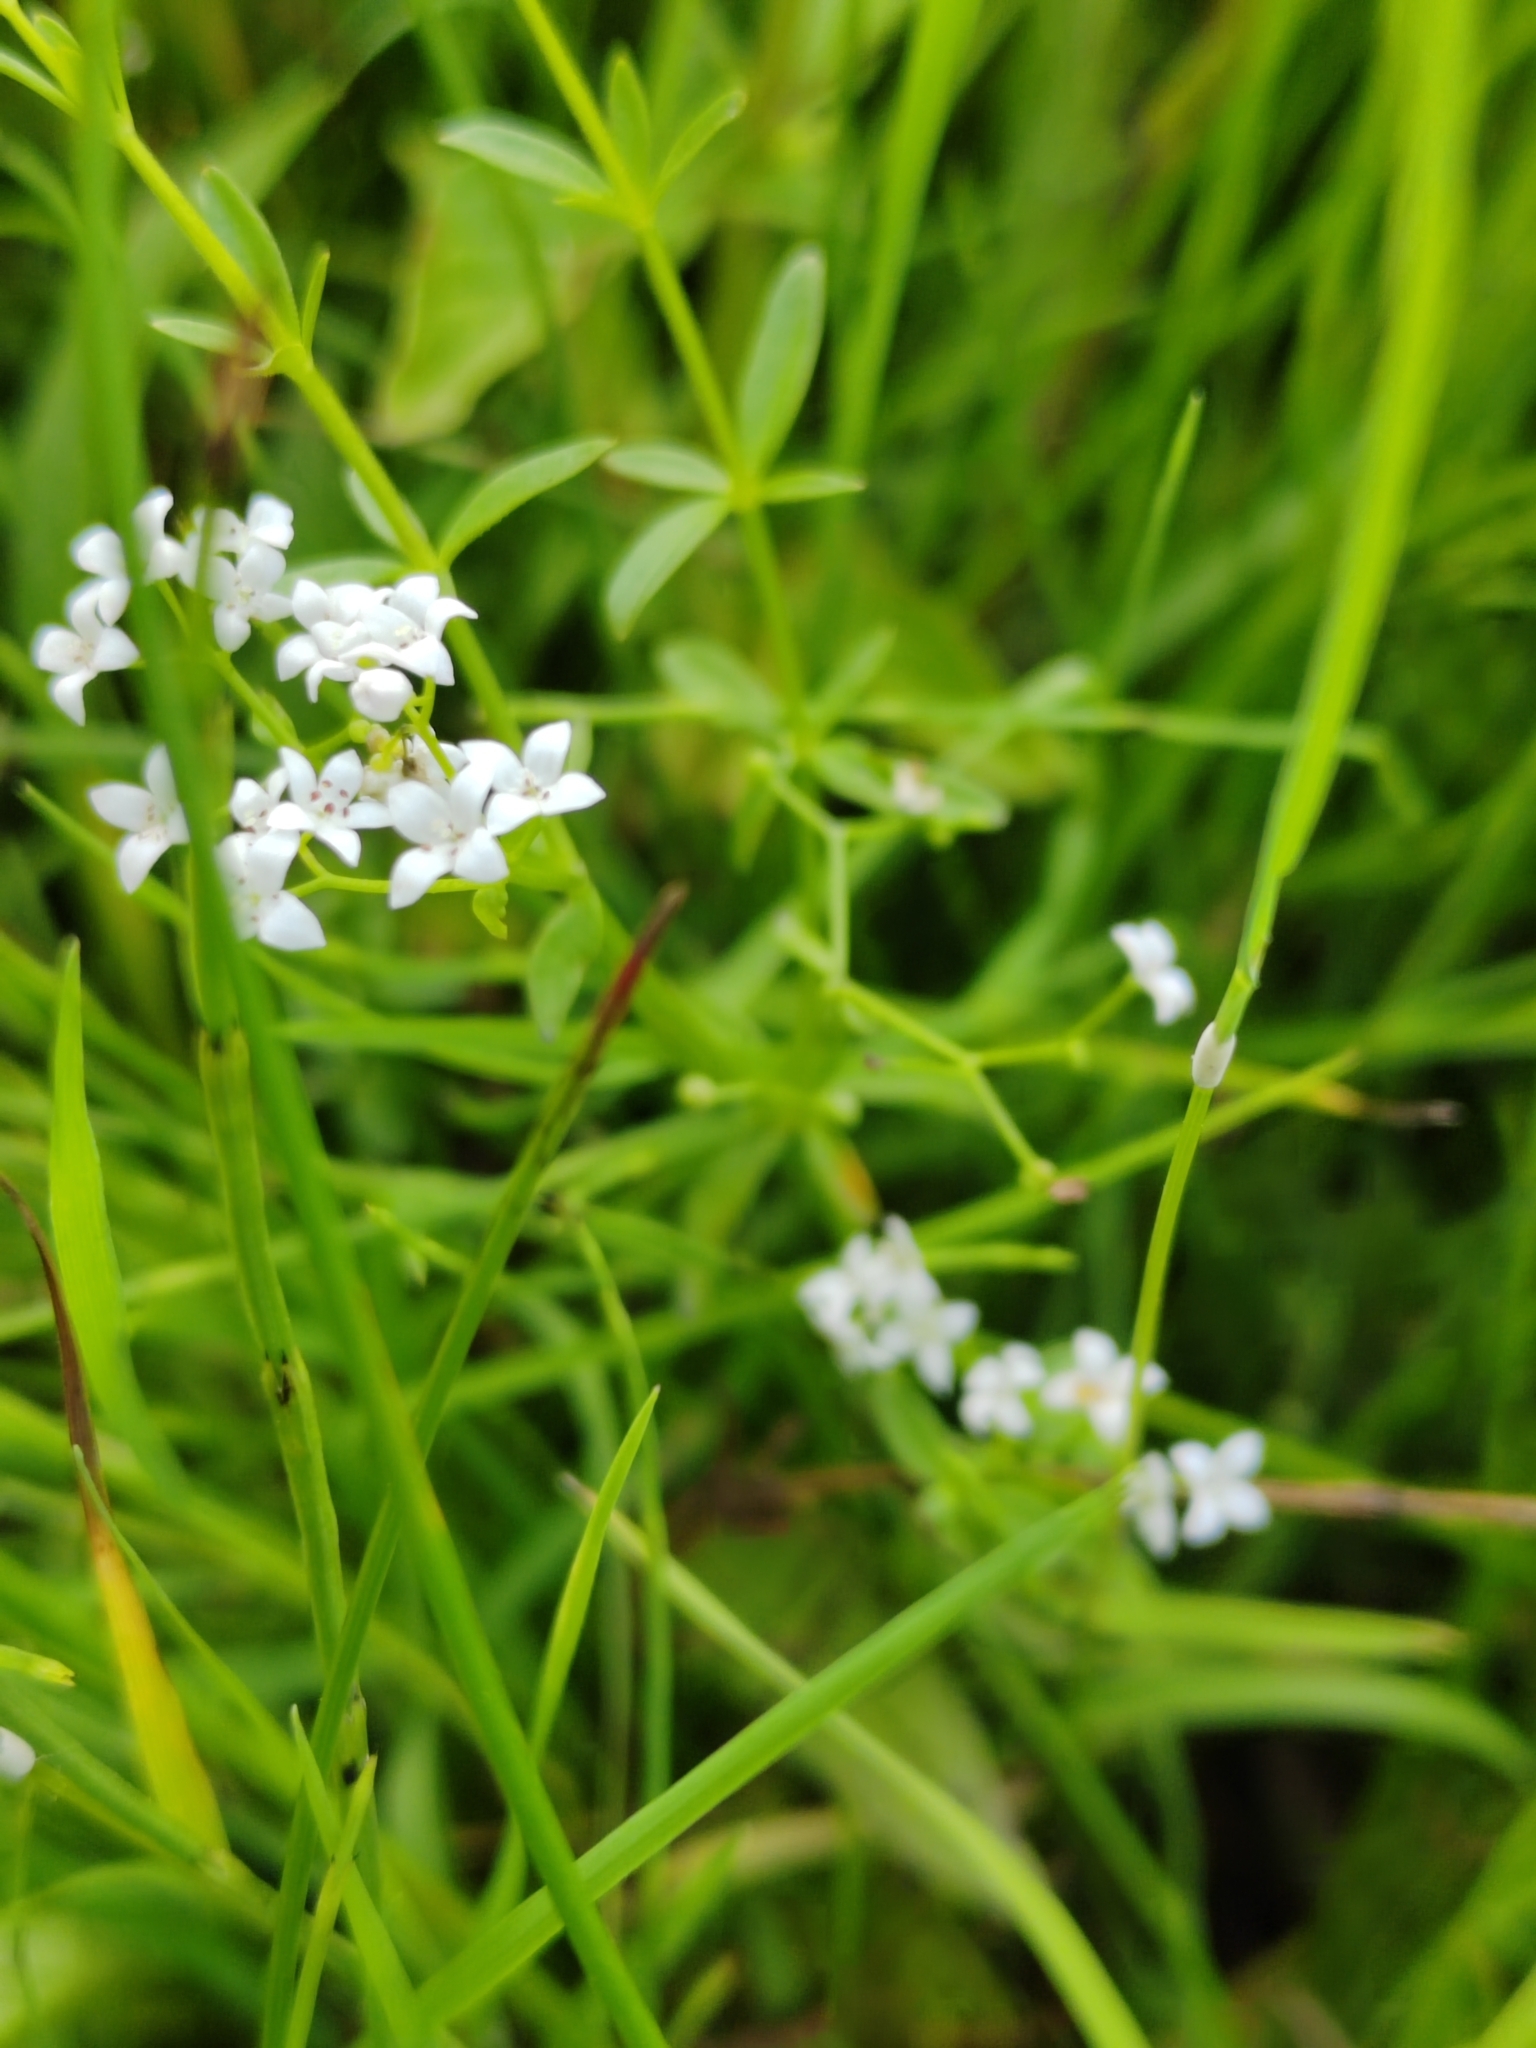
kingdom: Plantae
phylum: Tracheophyta
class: Magnoliopsida
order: Gentianales
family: Rubiaceae
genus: Galium
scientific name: Galium palustre
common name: Common marsh-bedstraw
